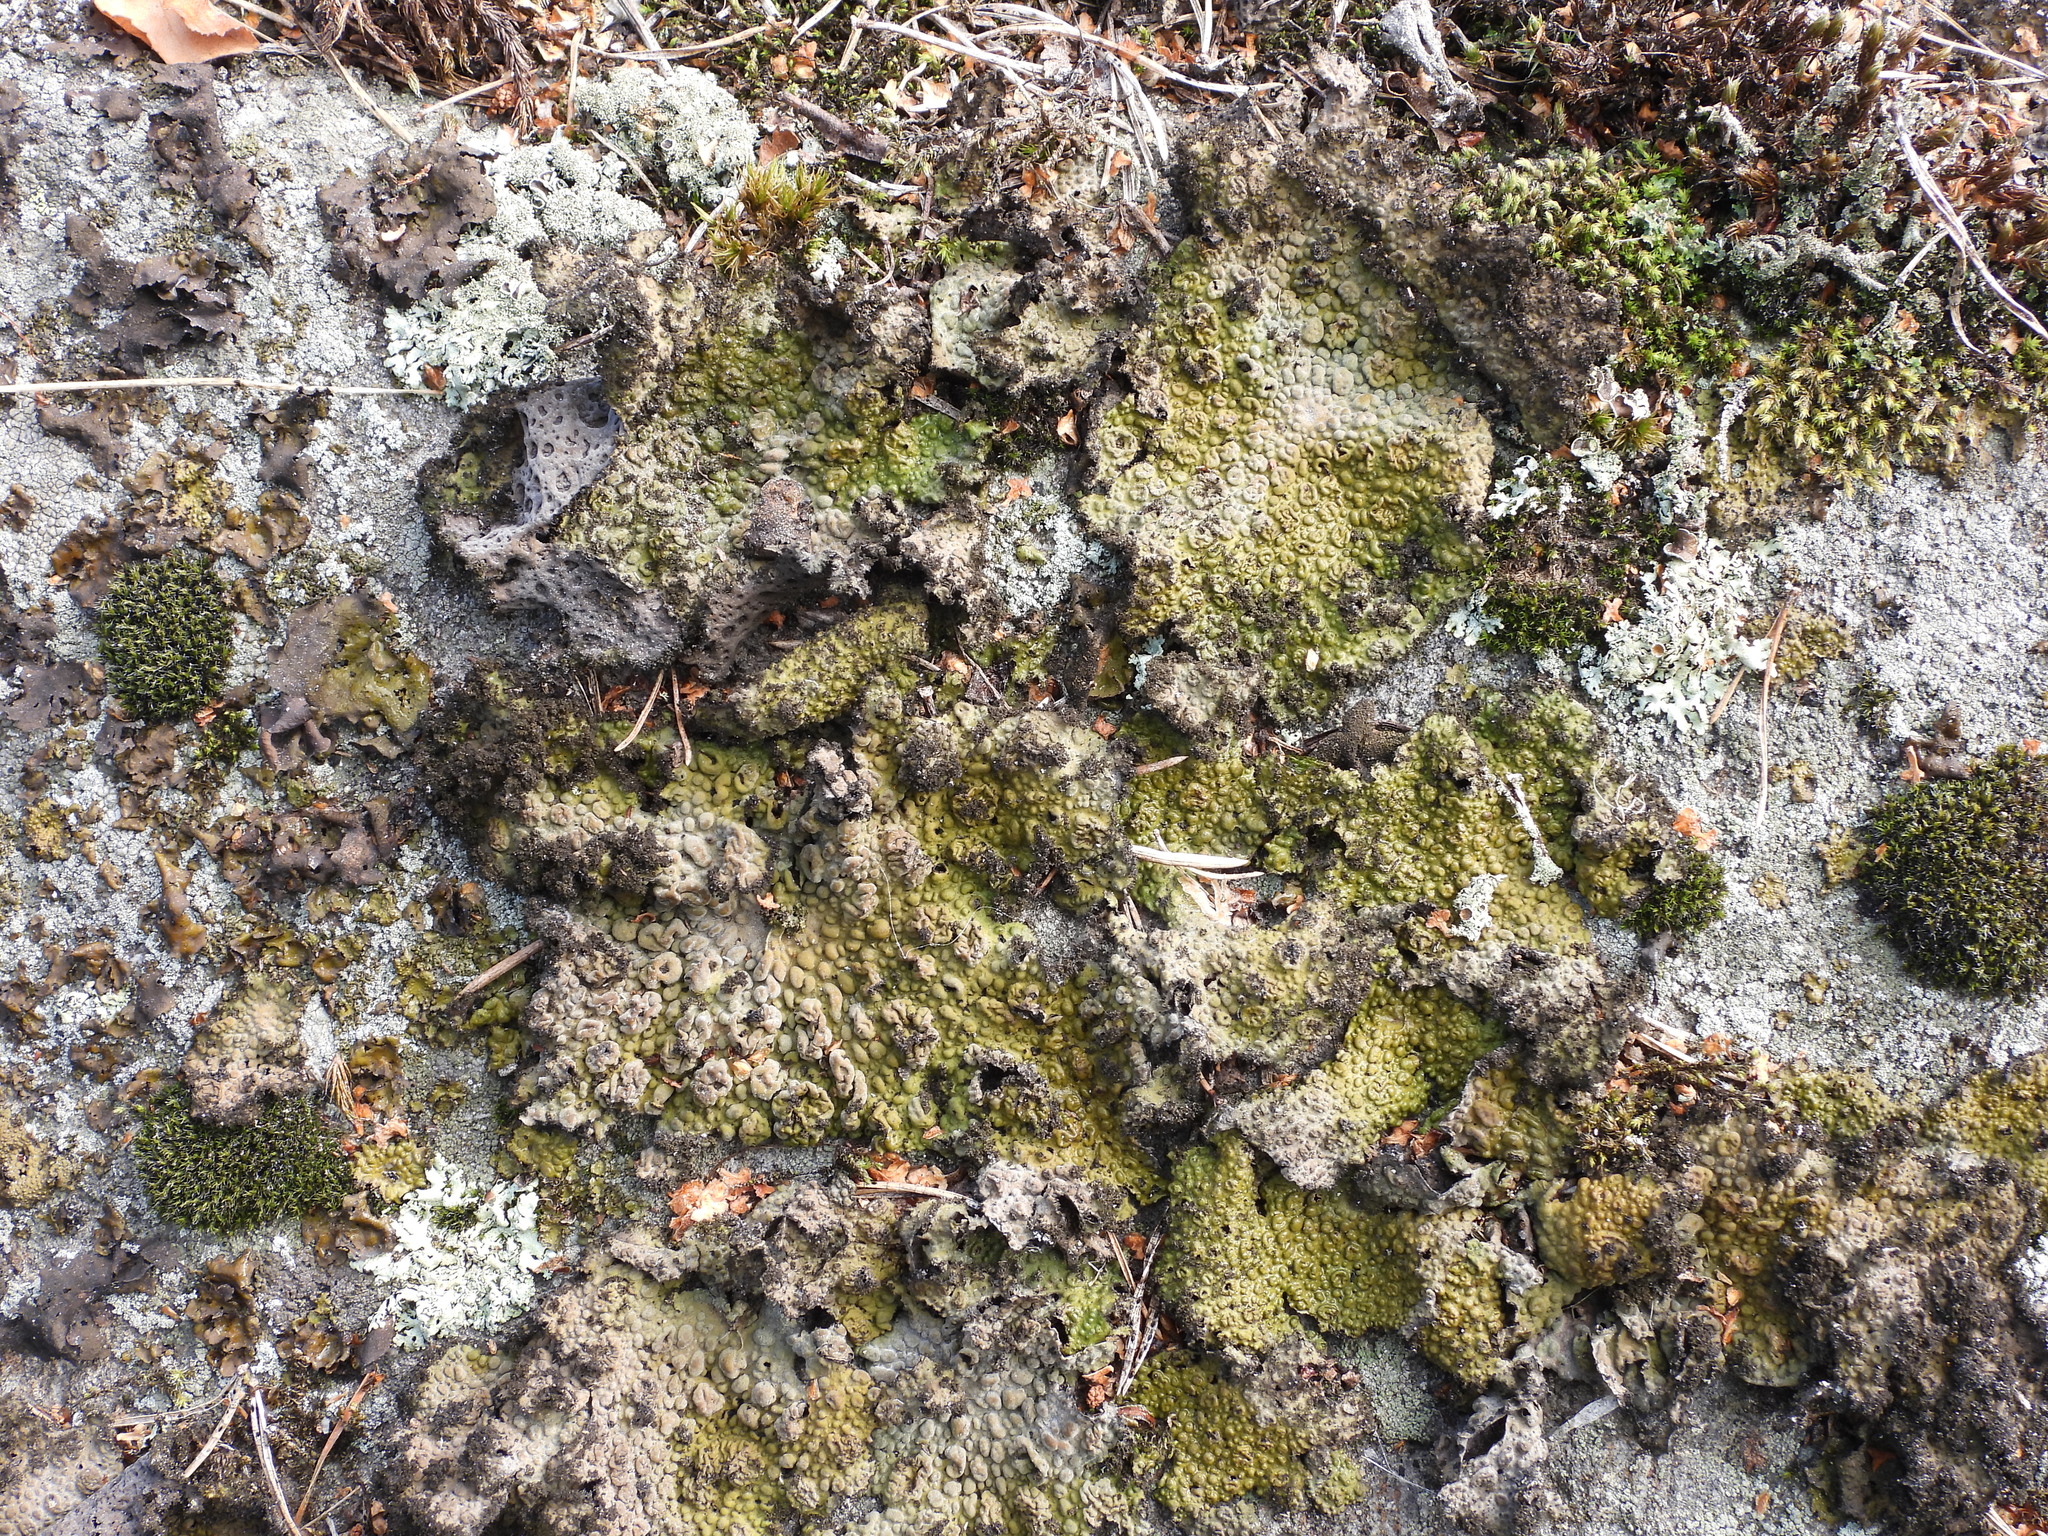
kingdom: Fungi
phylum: Ascomycota
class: Lecanoromycetes
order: Umbilicariales
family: Umbilicariaceae
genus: Lasallia
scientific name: Lasallia pustulata
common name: Blistered toadskin lichen
